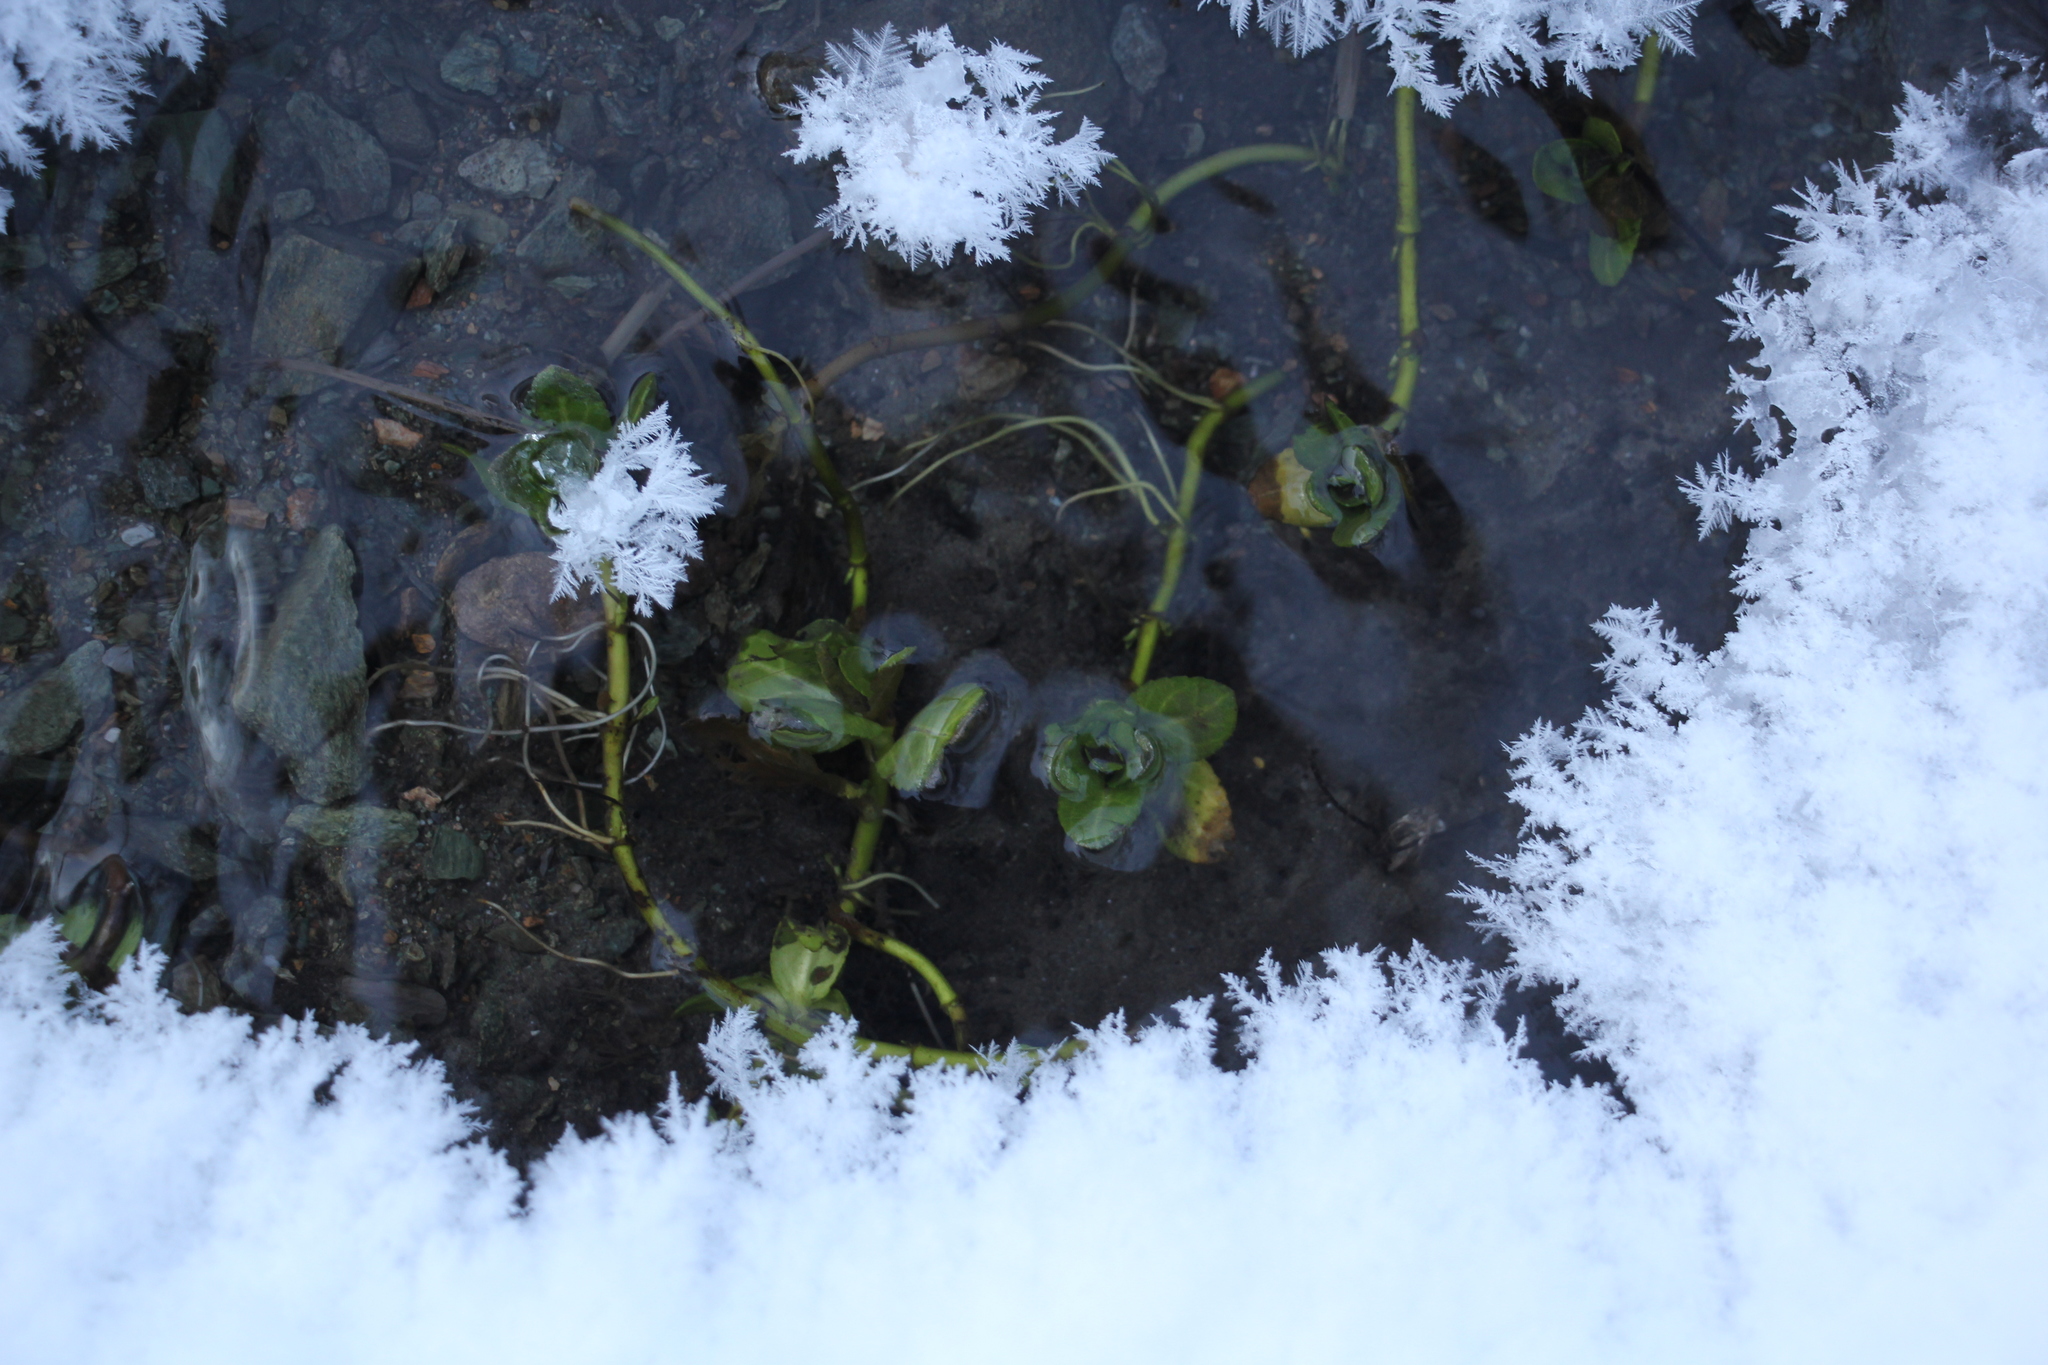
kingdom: Plantae
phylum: Tracheophyta
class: Magnoliopsida
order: Lamiales
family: Plantaginaceae
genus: Veronica
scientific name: Veronica beccabunga
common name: Brooklime
